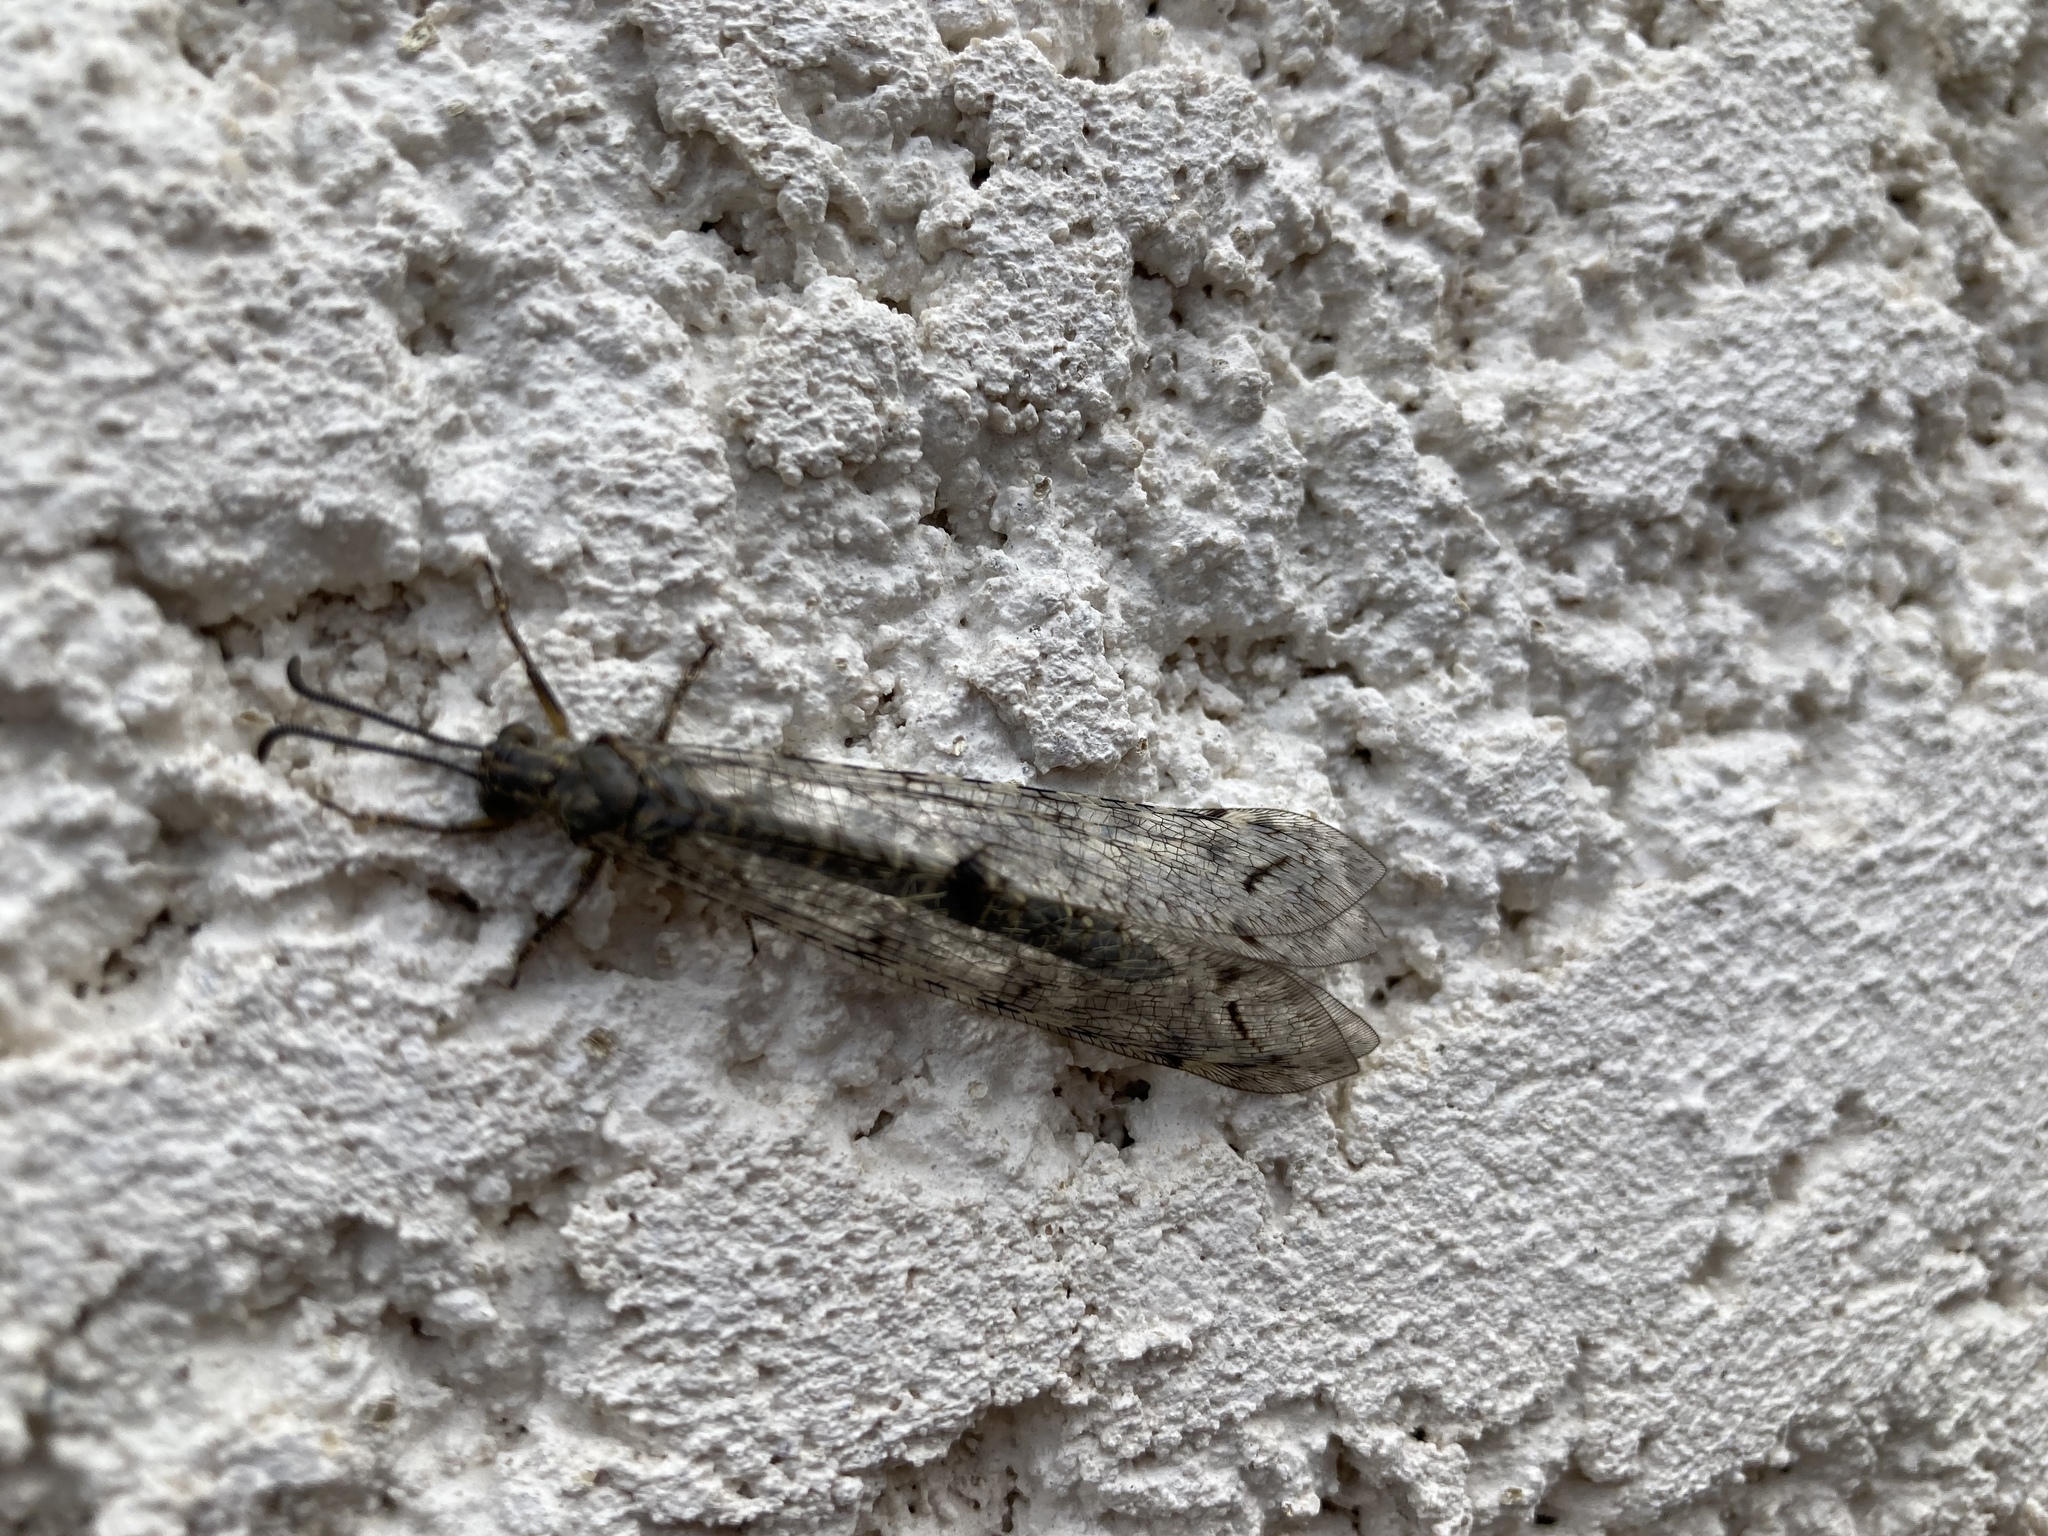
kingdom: Animalia
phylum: Arthropoda
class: Insecta
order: Neuroptera
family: Myrmeleontidae
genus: Distoleon
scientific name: Distoleon tetragrammicus
